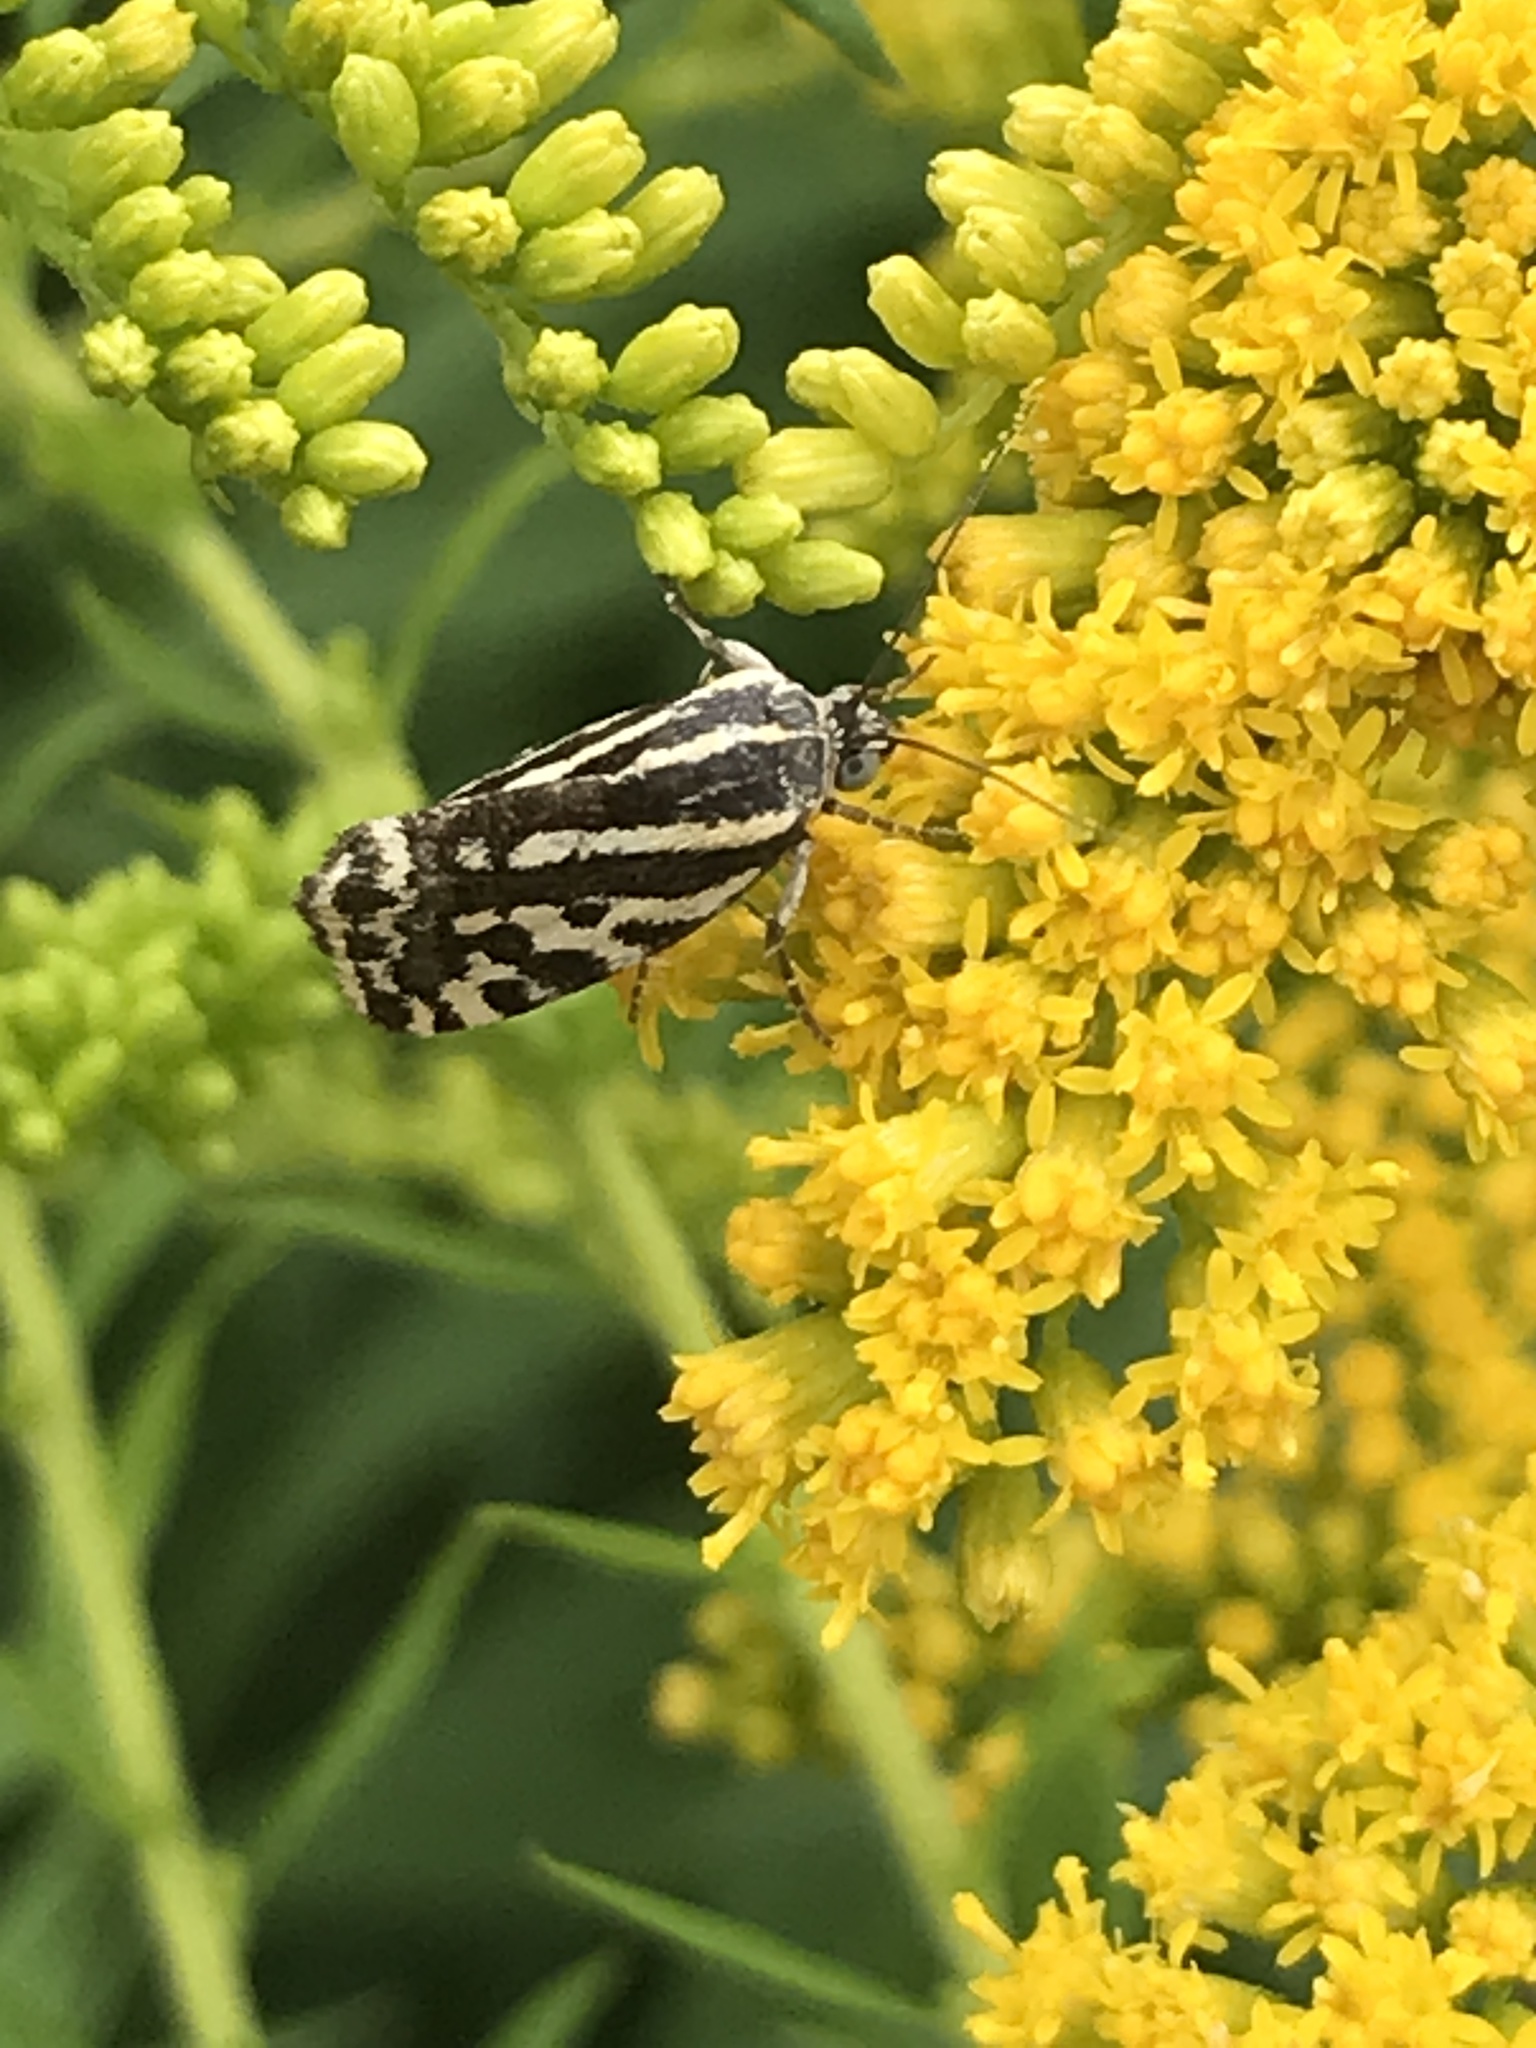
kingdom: Animalia
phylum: Arthropoda
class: Insecta
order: Lepidoptera
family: Noctuidae
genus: Acontia
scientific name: Acontia trabealis
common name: Spotted sulphur
